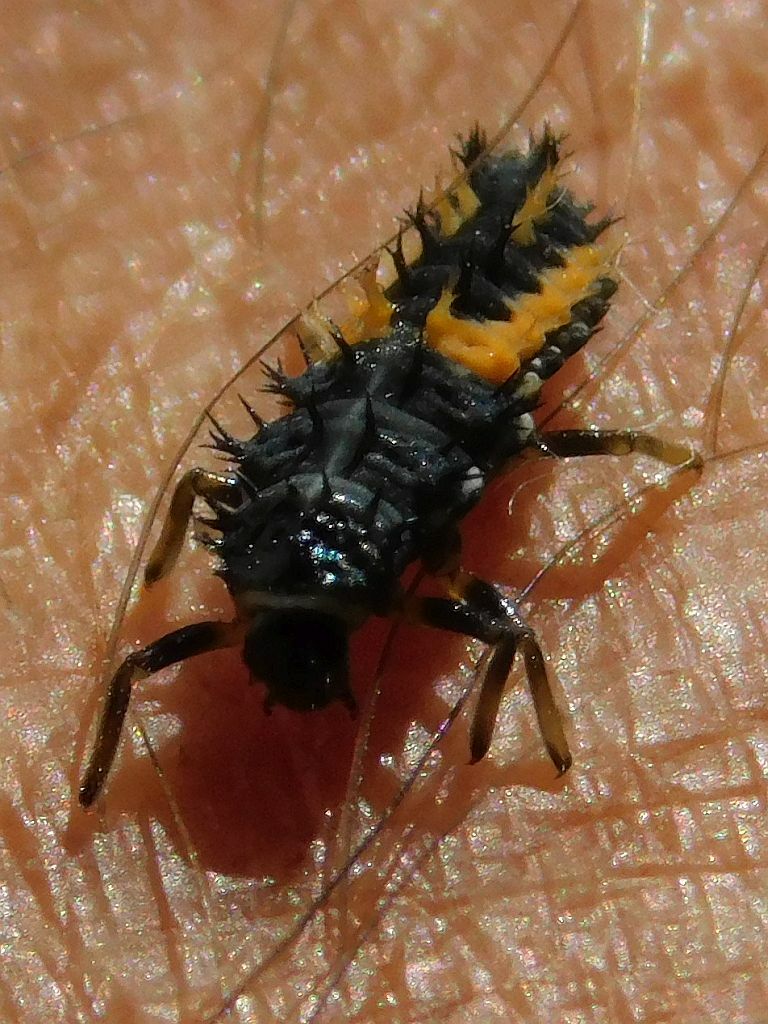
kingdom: Animalia
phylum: Arthropoda
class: Insecta
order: Coleoptera
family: Coccinellidae
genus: Harmonia
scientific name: Harmonia axyridis
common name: Harlequin ladybird
